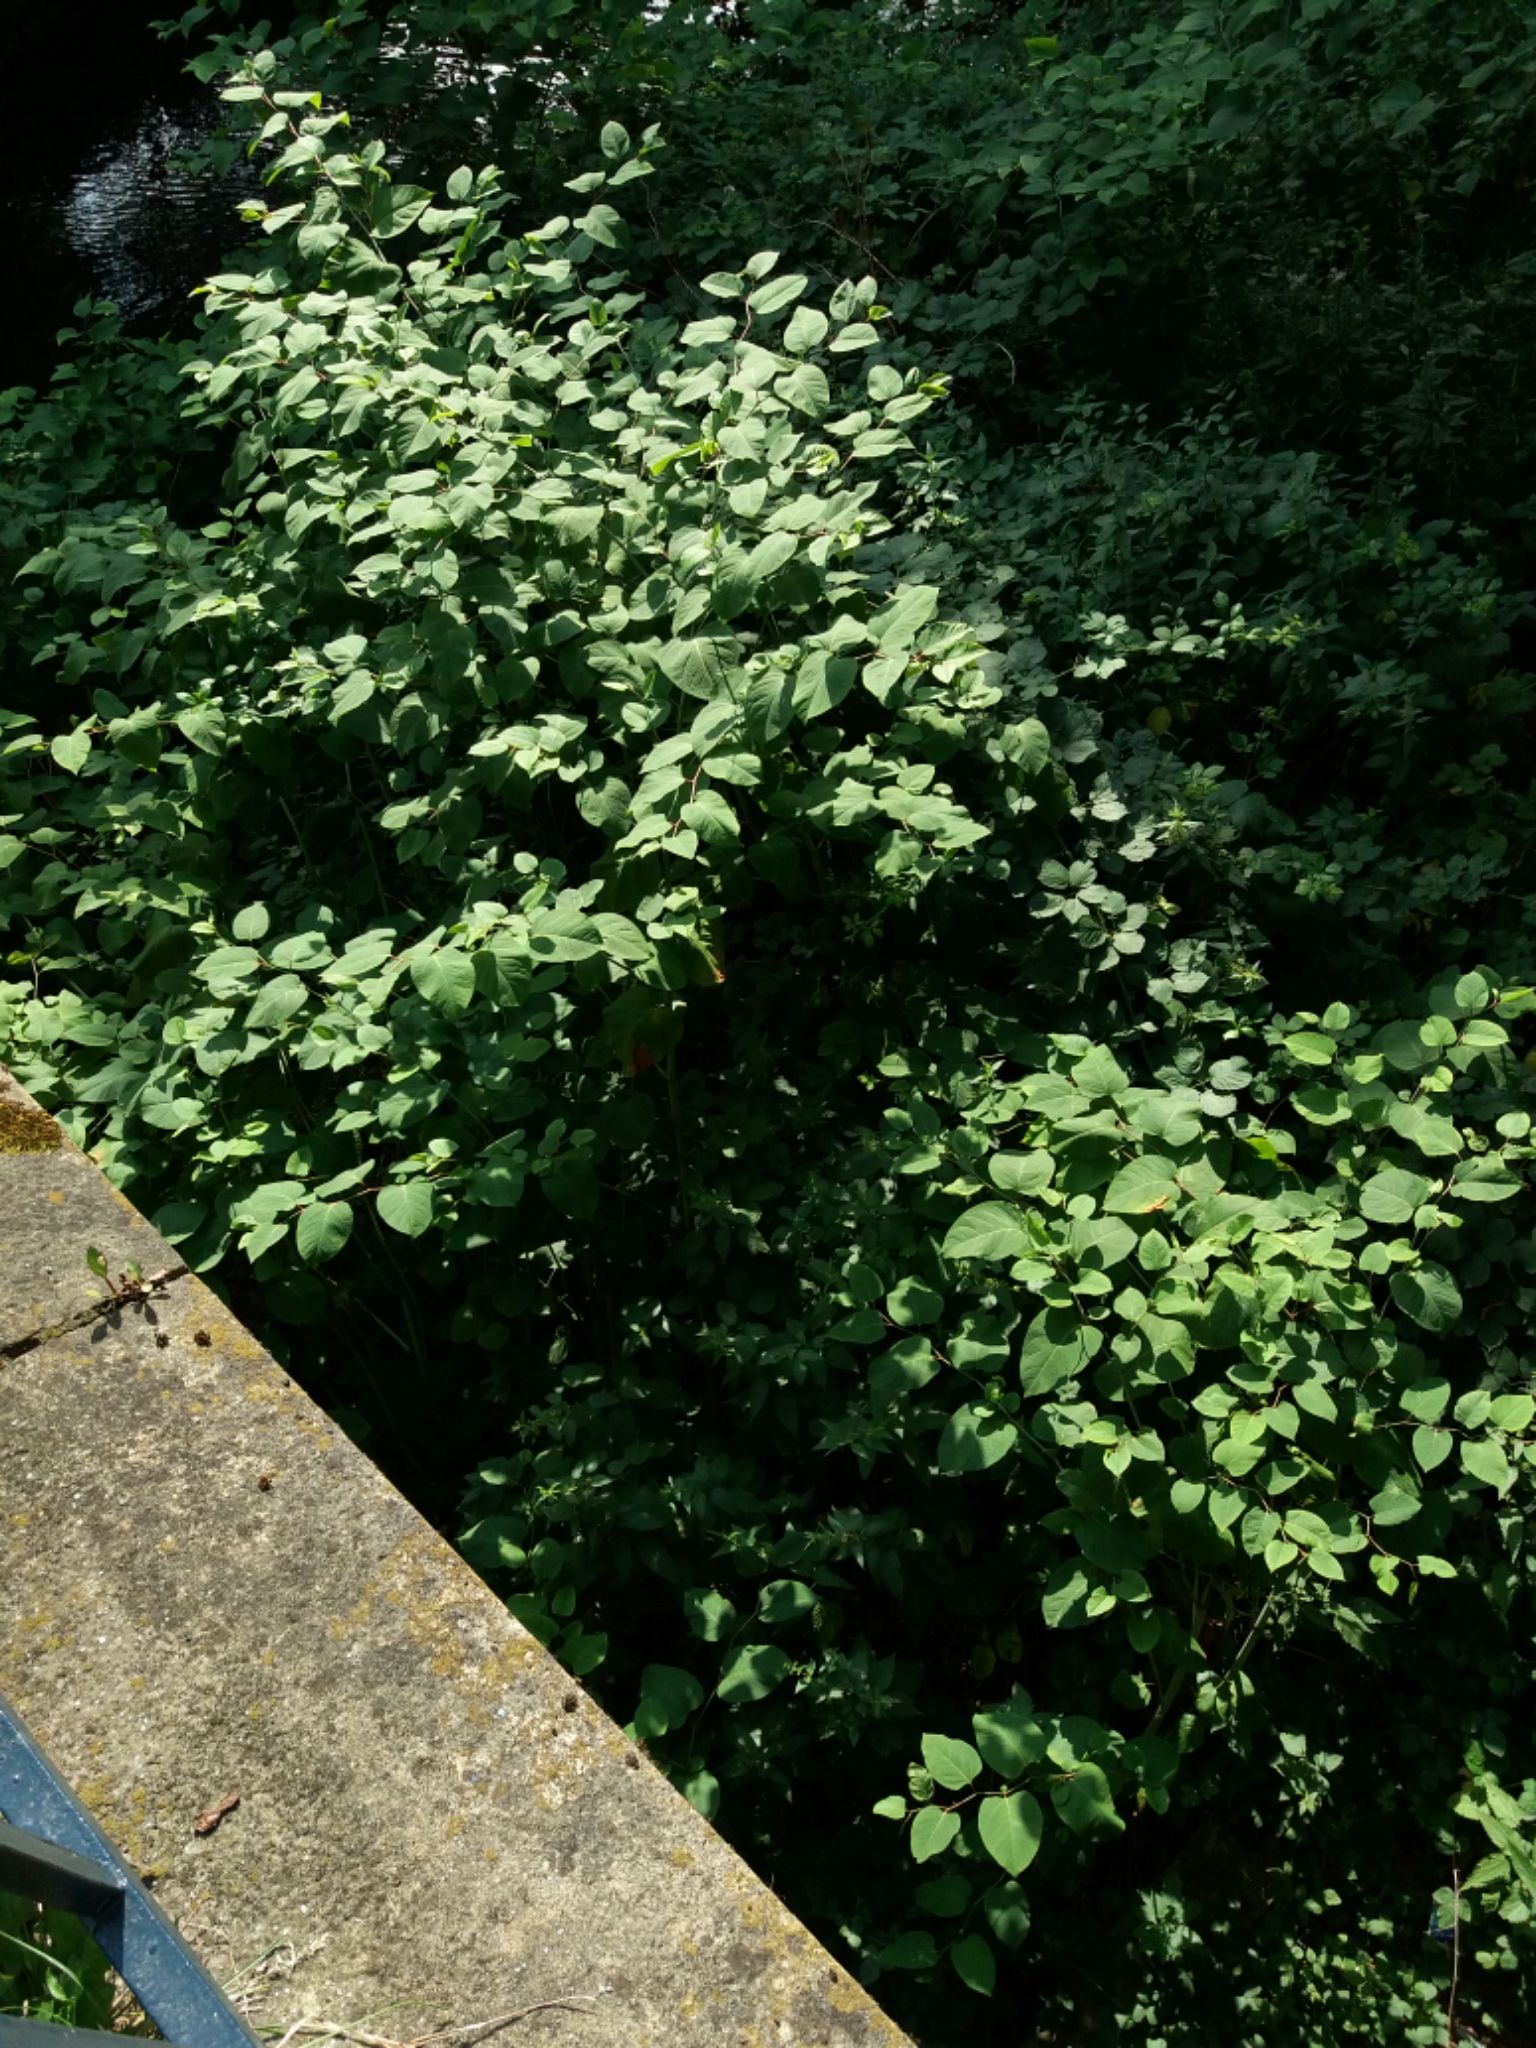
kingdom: Plantae
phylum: Tracheophyta
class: Magnoliopsida
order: Caryophyllales
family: Polygonaceae
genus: Reynoutria
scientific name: Reynoutria japonica
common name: Japanese knotweed
